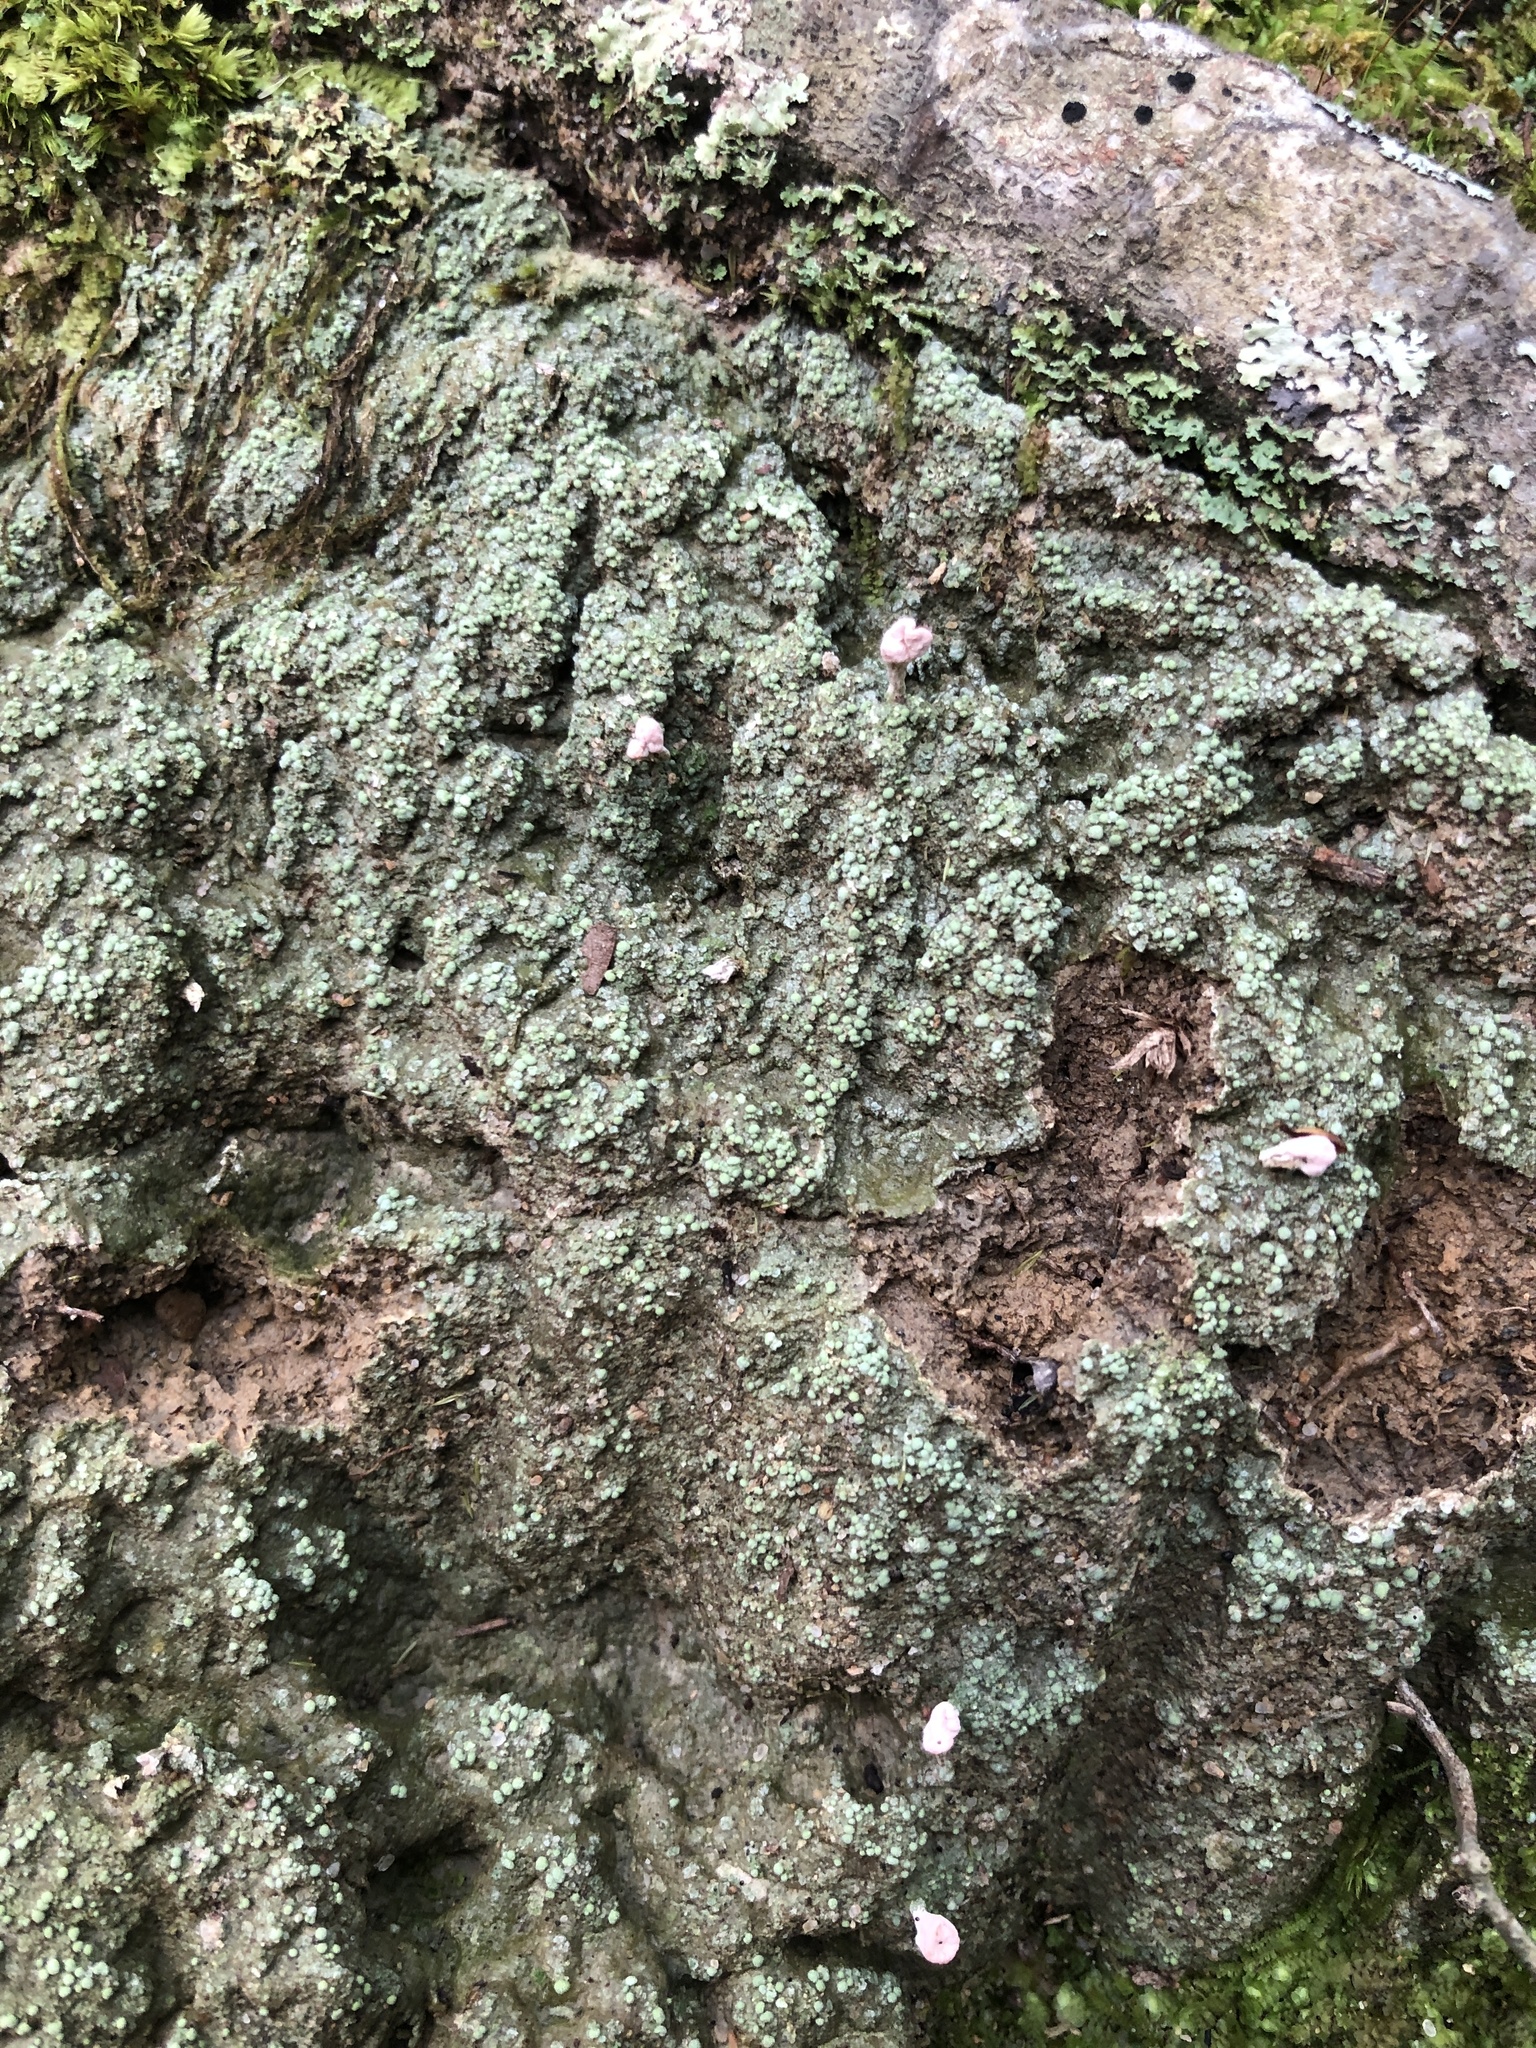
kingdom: Fungi
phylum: Ascomycota
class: Lecanoromycetes
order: Pertusariales
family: Icmadophilaceae
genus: Dibaeis
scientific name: Dibaeis baeomyces
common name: Pink earth lichen
